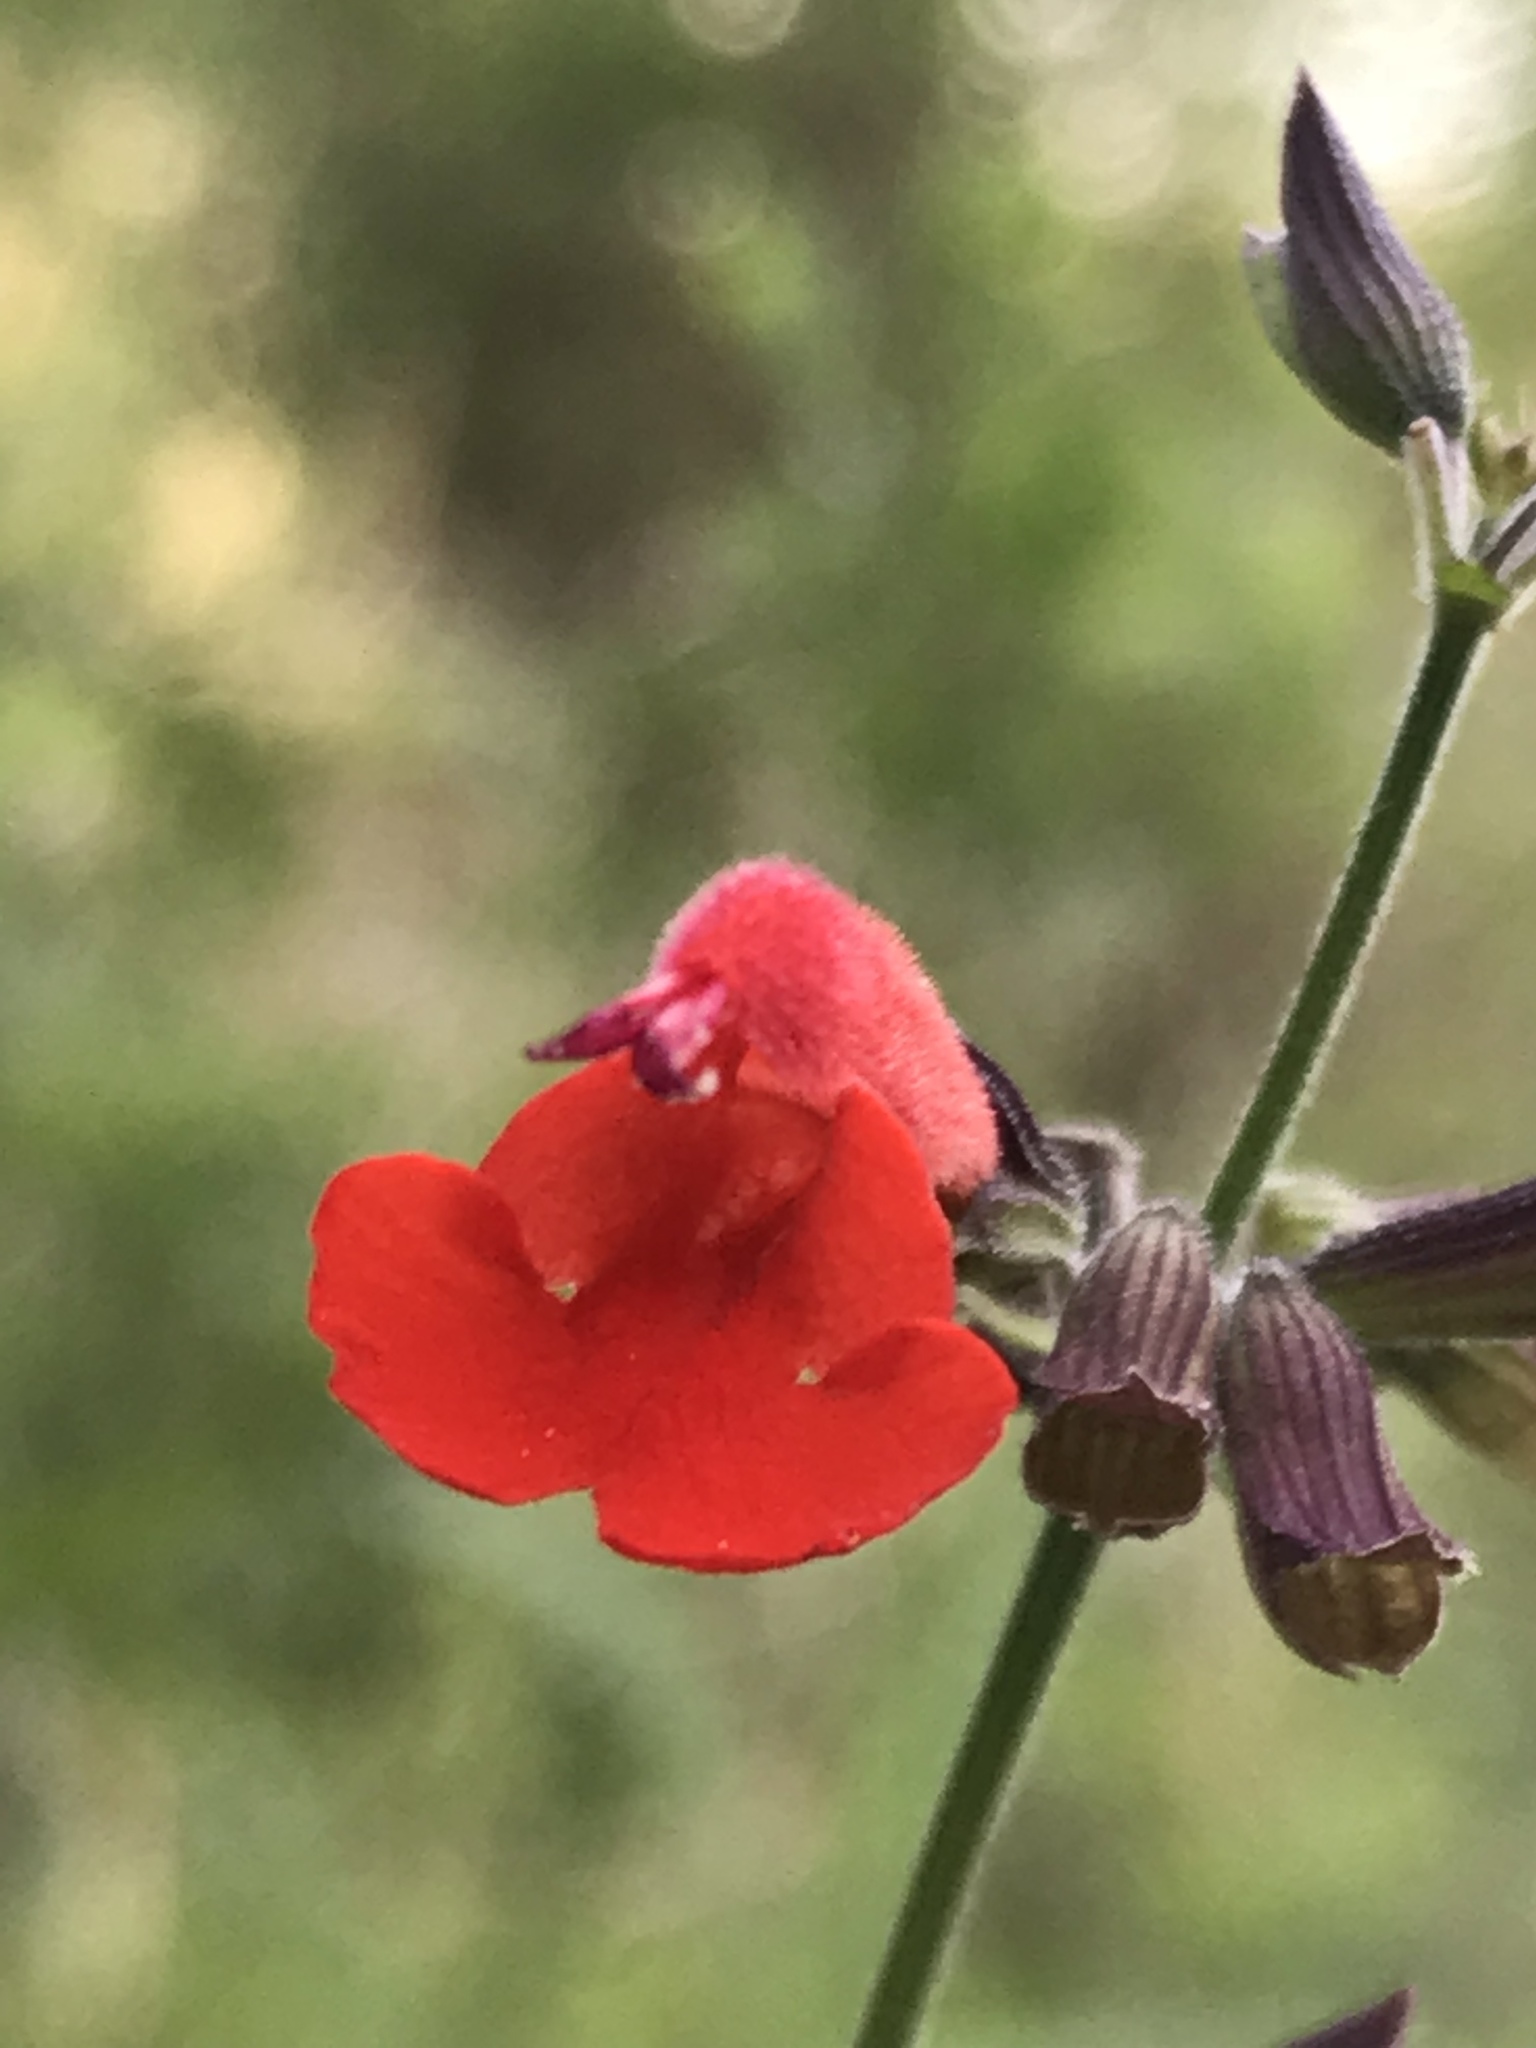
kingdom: Plantae
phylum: Tracheophyta
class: Magnoliopsida
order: Lamiales
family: Lamiaceae
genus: Salvia
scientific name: Salvia coccinea
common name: Blood sage
